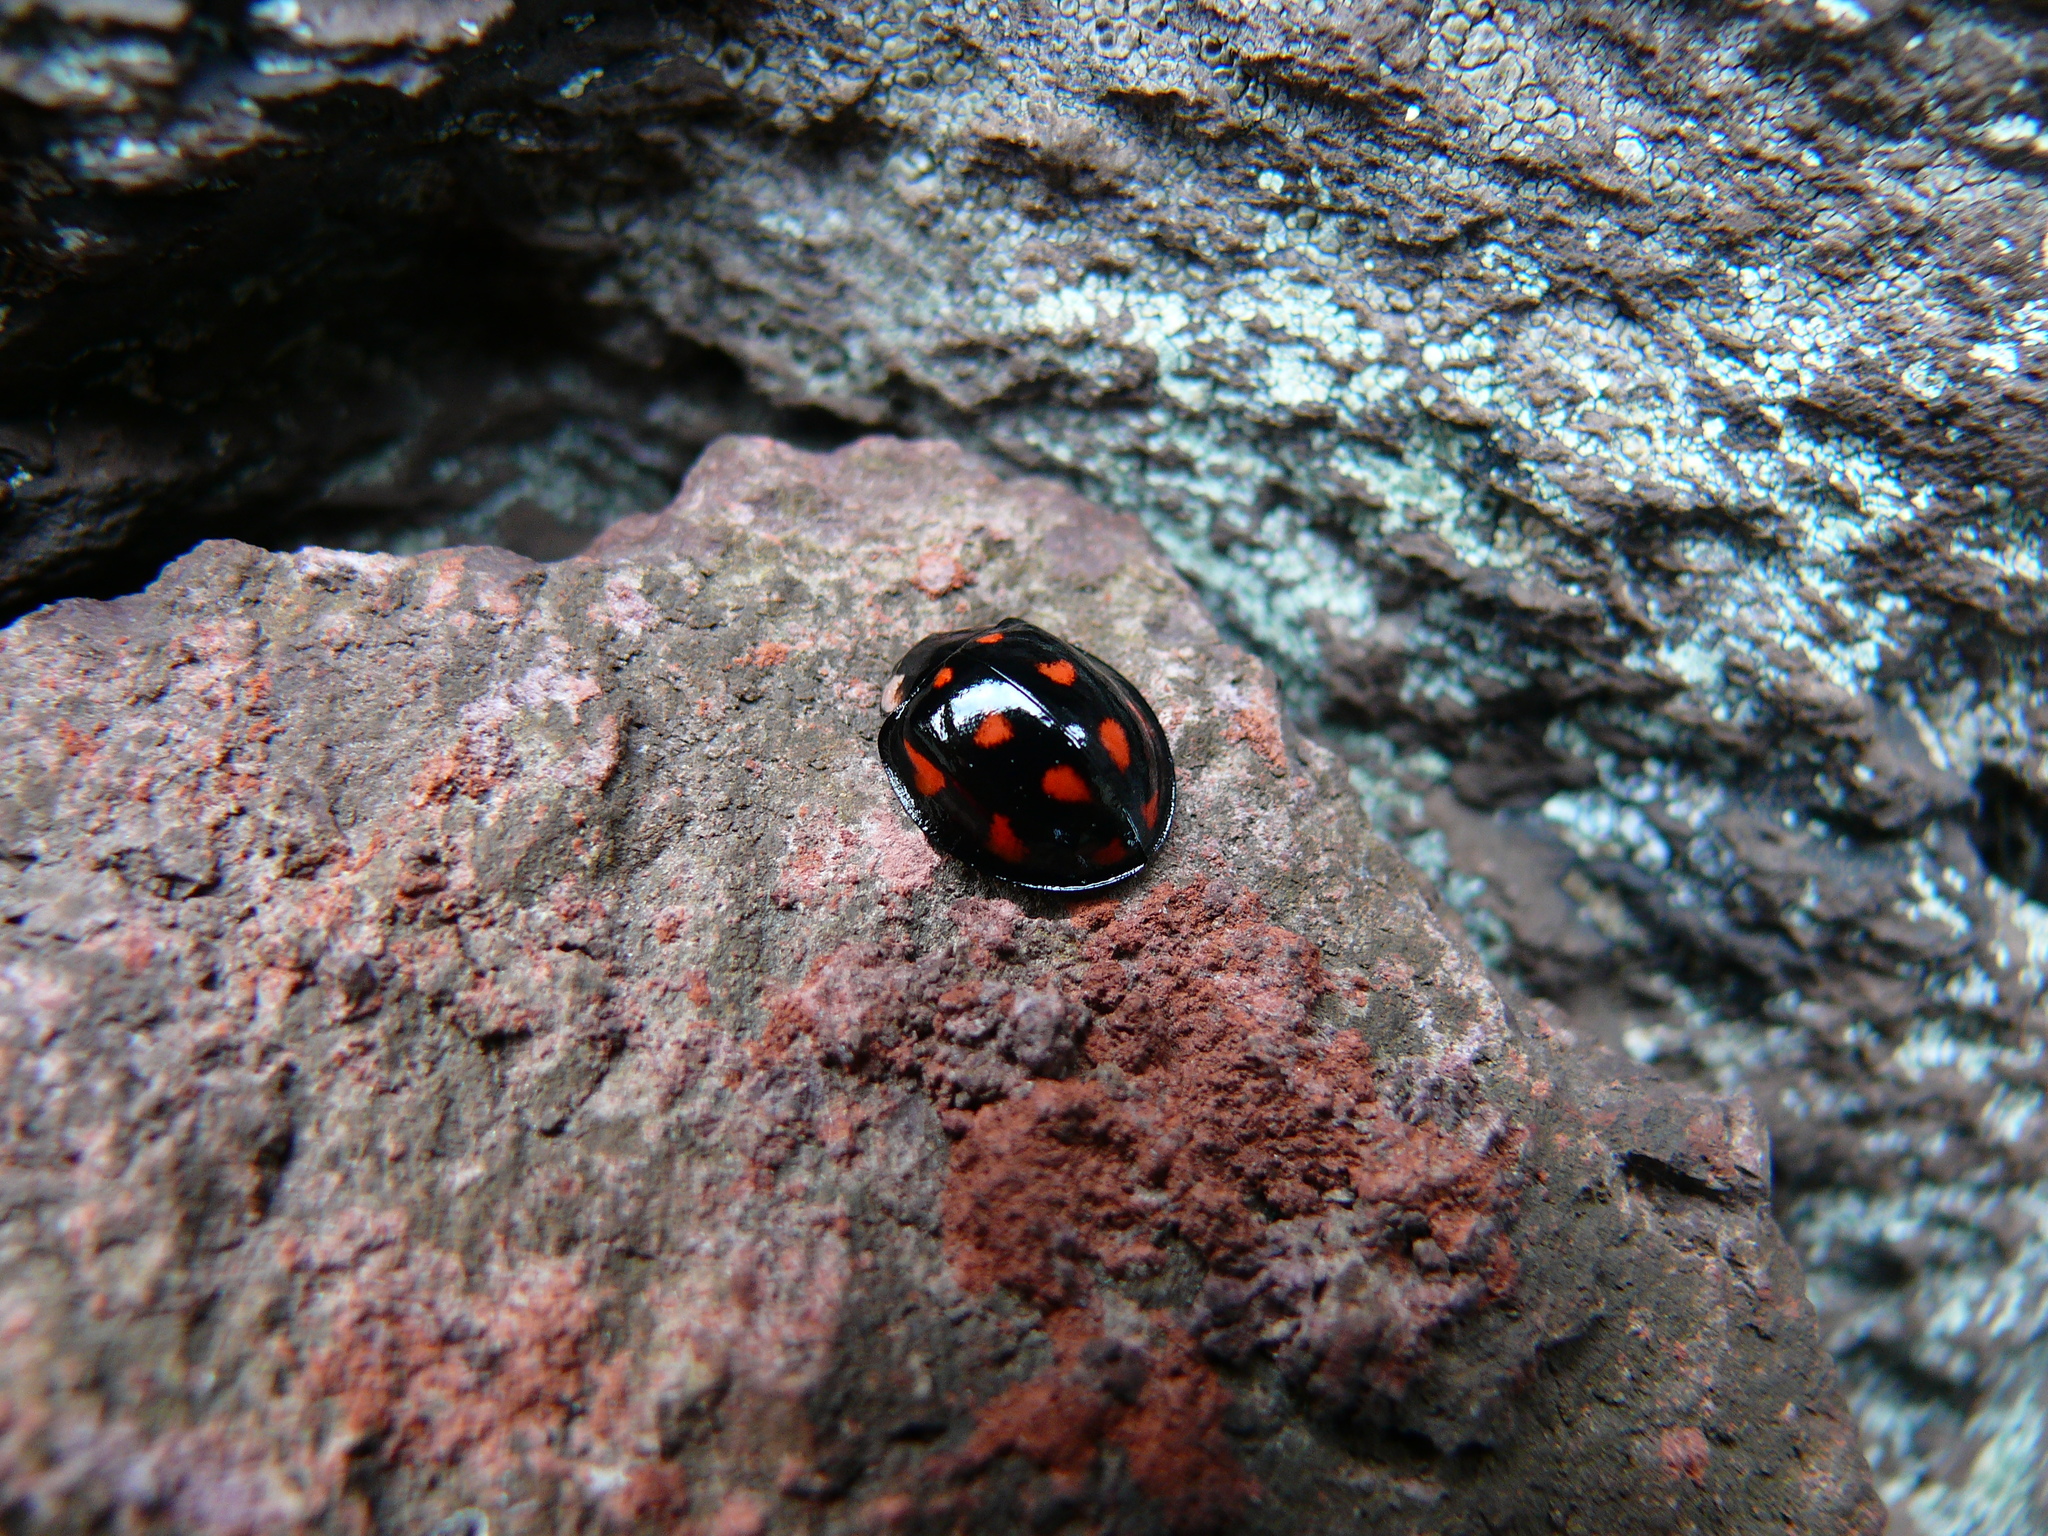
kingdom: Animalia
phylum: Arthropoda
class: Insecta
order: Coleoptera
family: Coccinellidae
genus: Aiolocaria
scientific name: Aiolocaria hexaspilota
